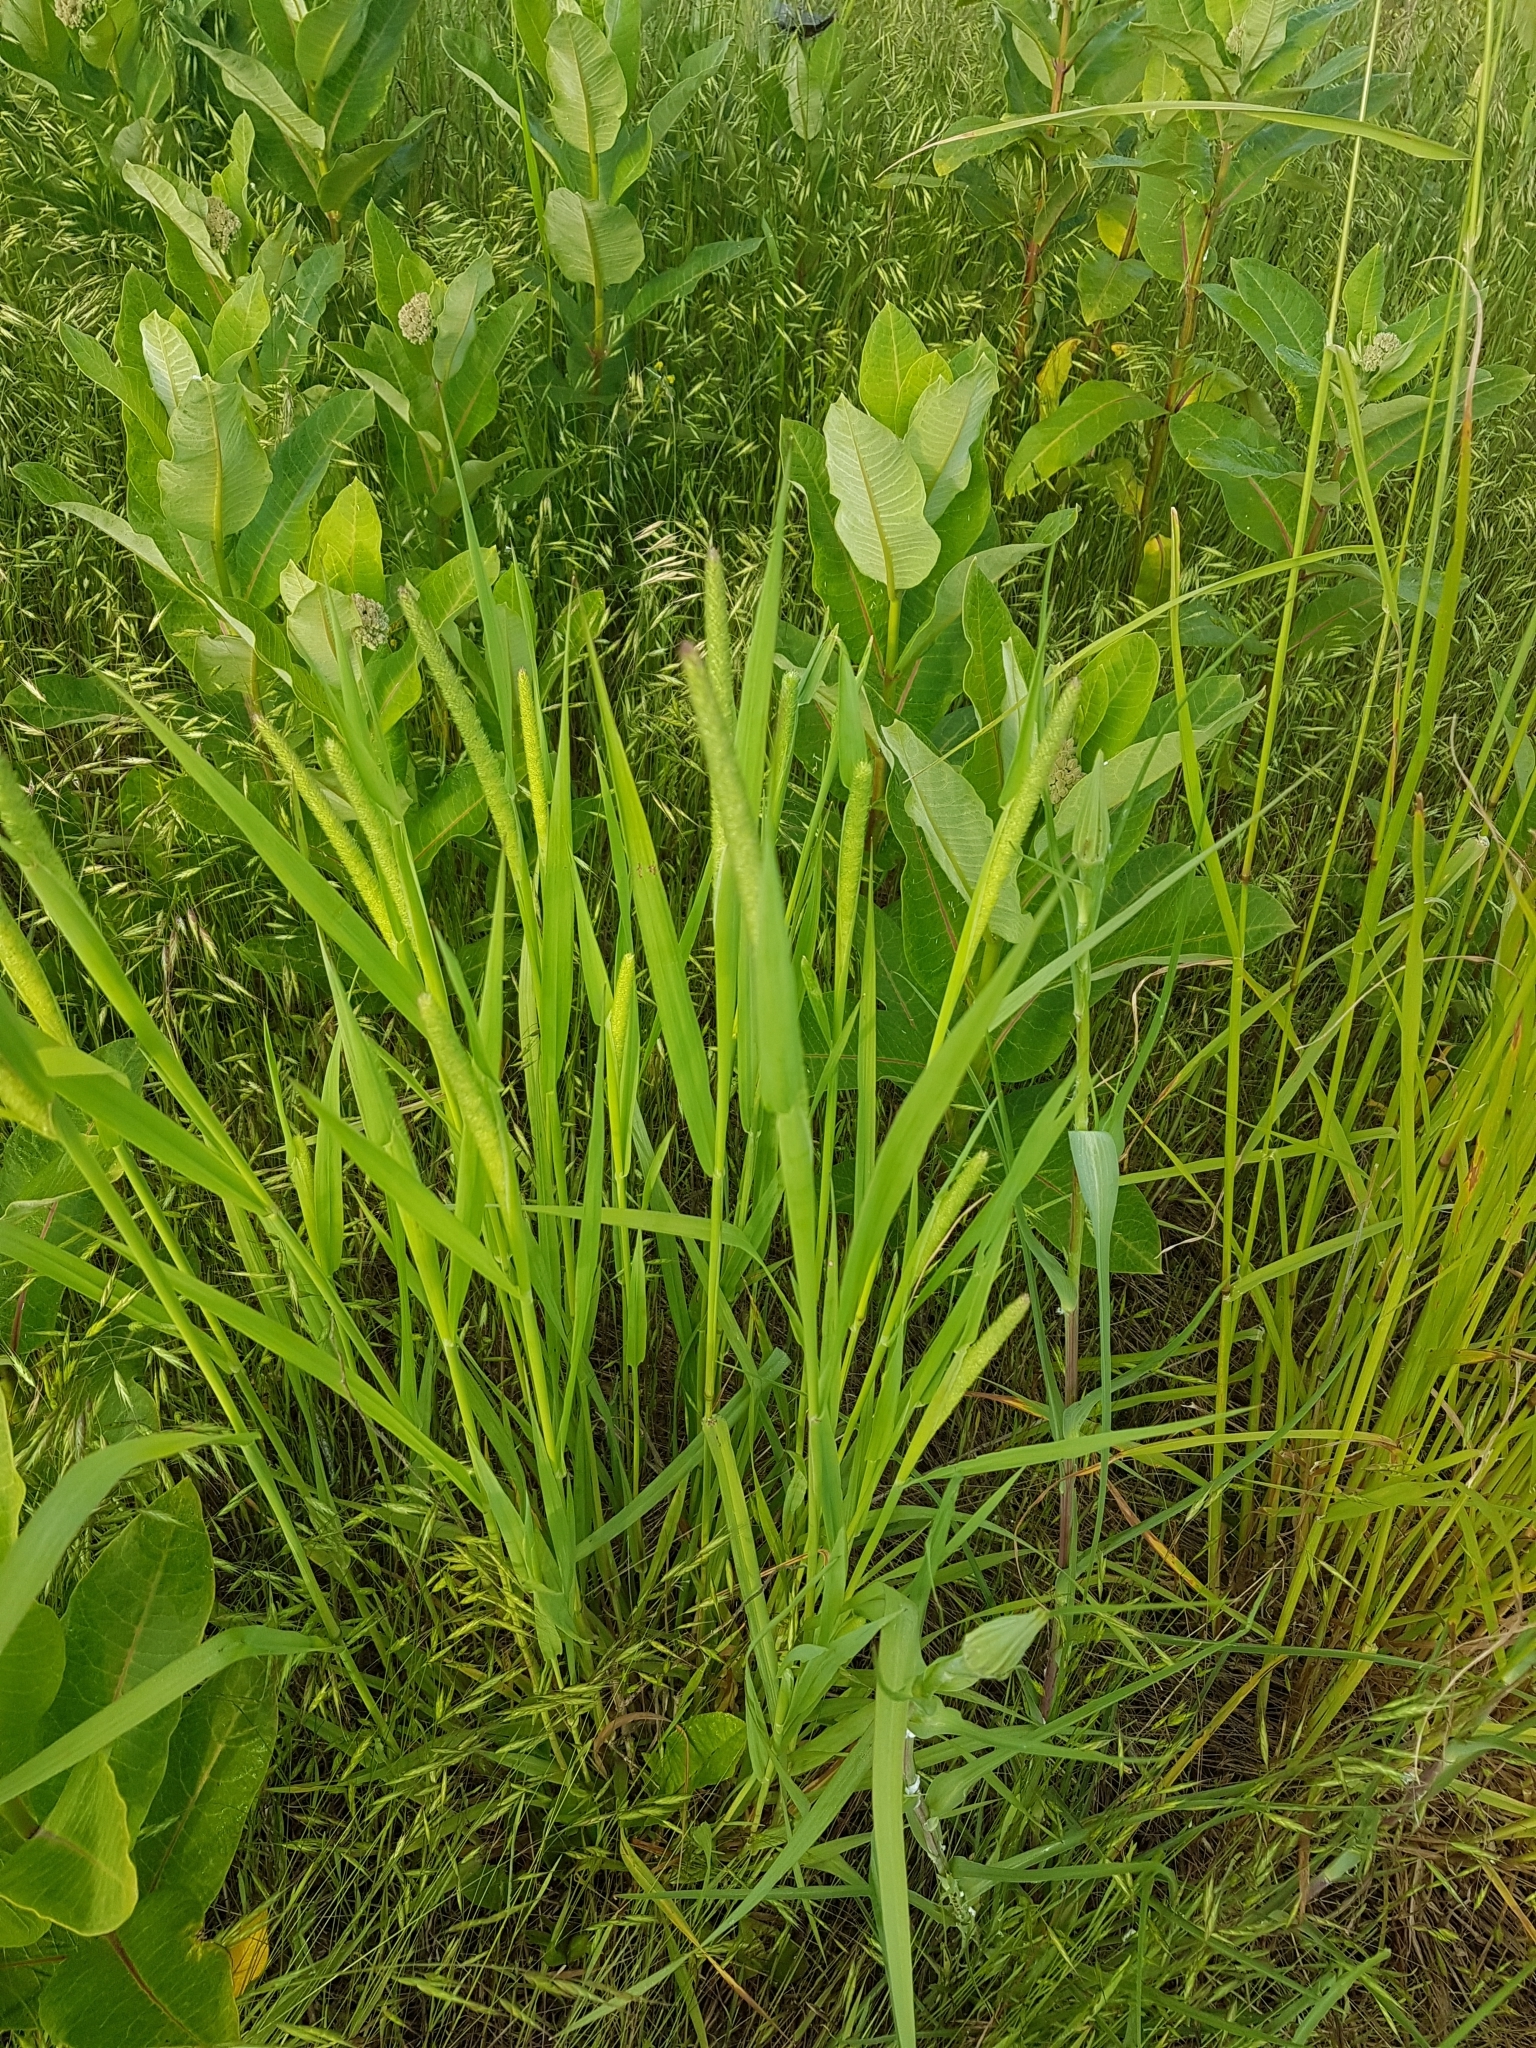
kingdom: Plantae
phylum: Tracheophyta
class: Liliopsida
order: Poales
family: Poaceae
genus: Phleum
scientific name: Phleum pratense
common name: Timothy grass
